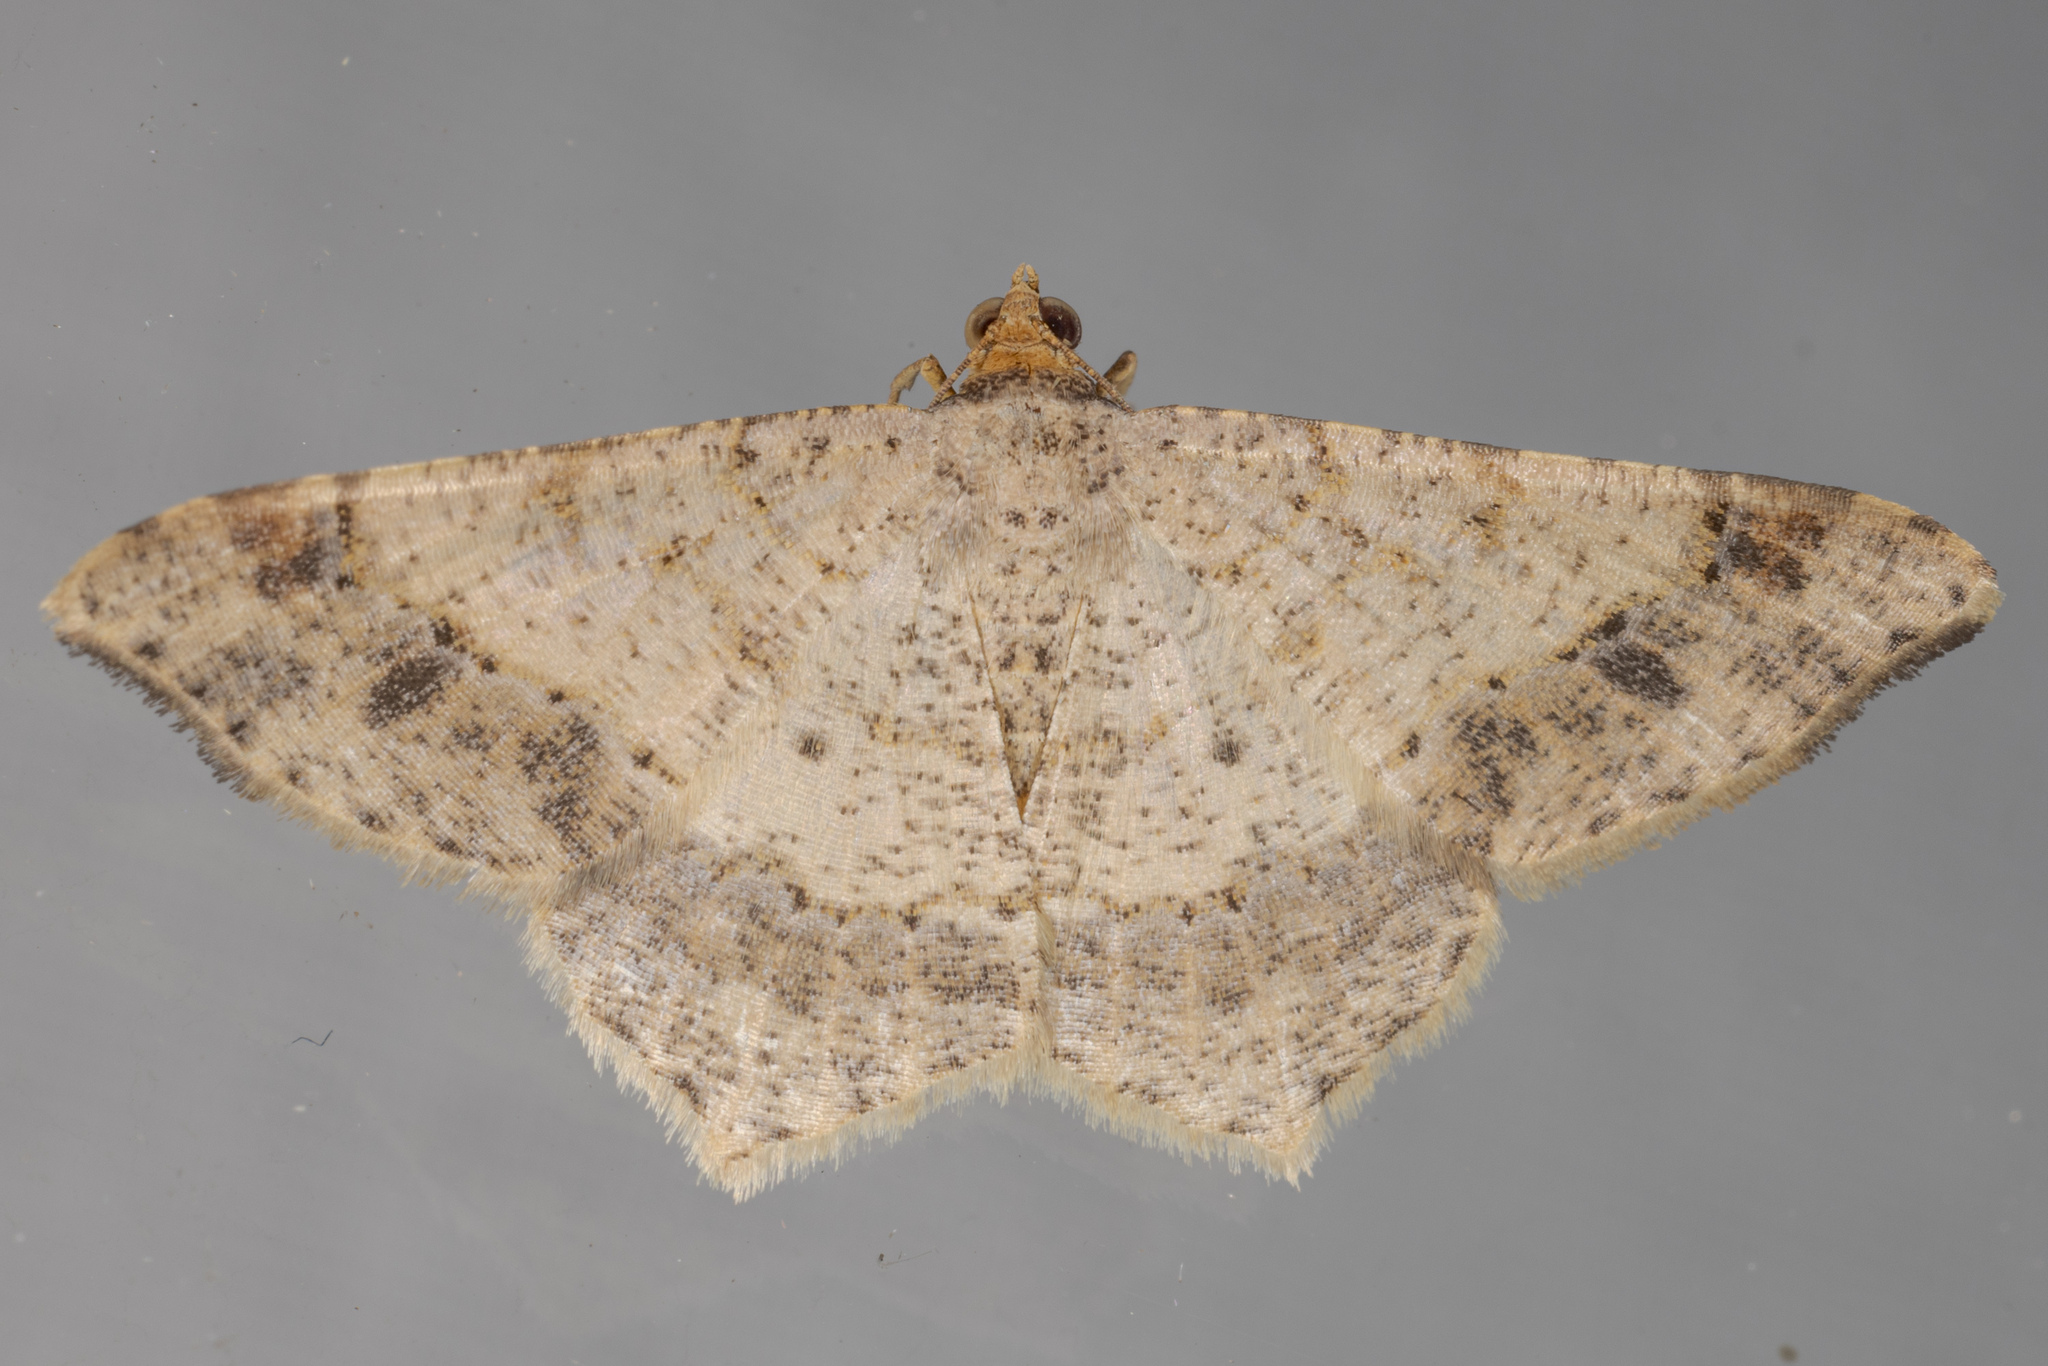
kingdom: Animalia
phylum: Arthropoda
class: Insecta
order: Lepidoptera
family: Geometridae
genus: Macaria
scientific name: Macaria abydata
